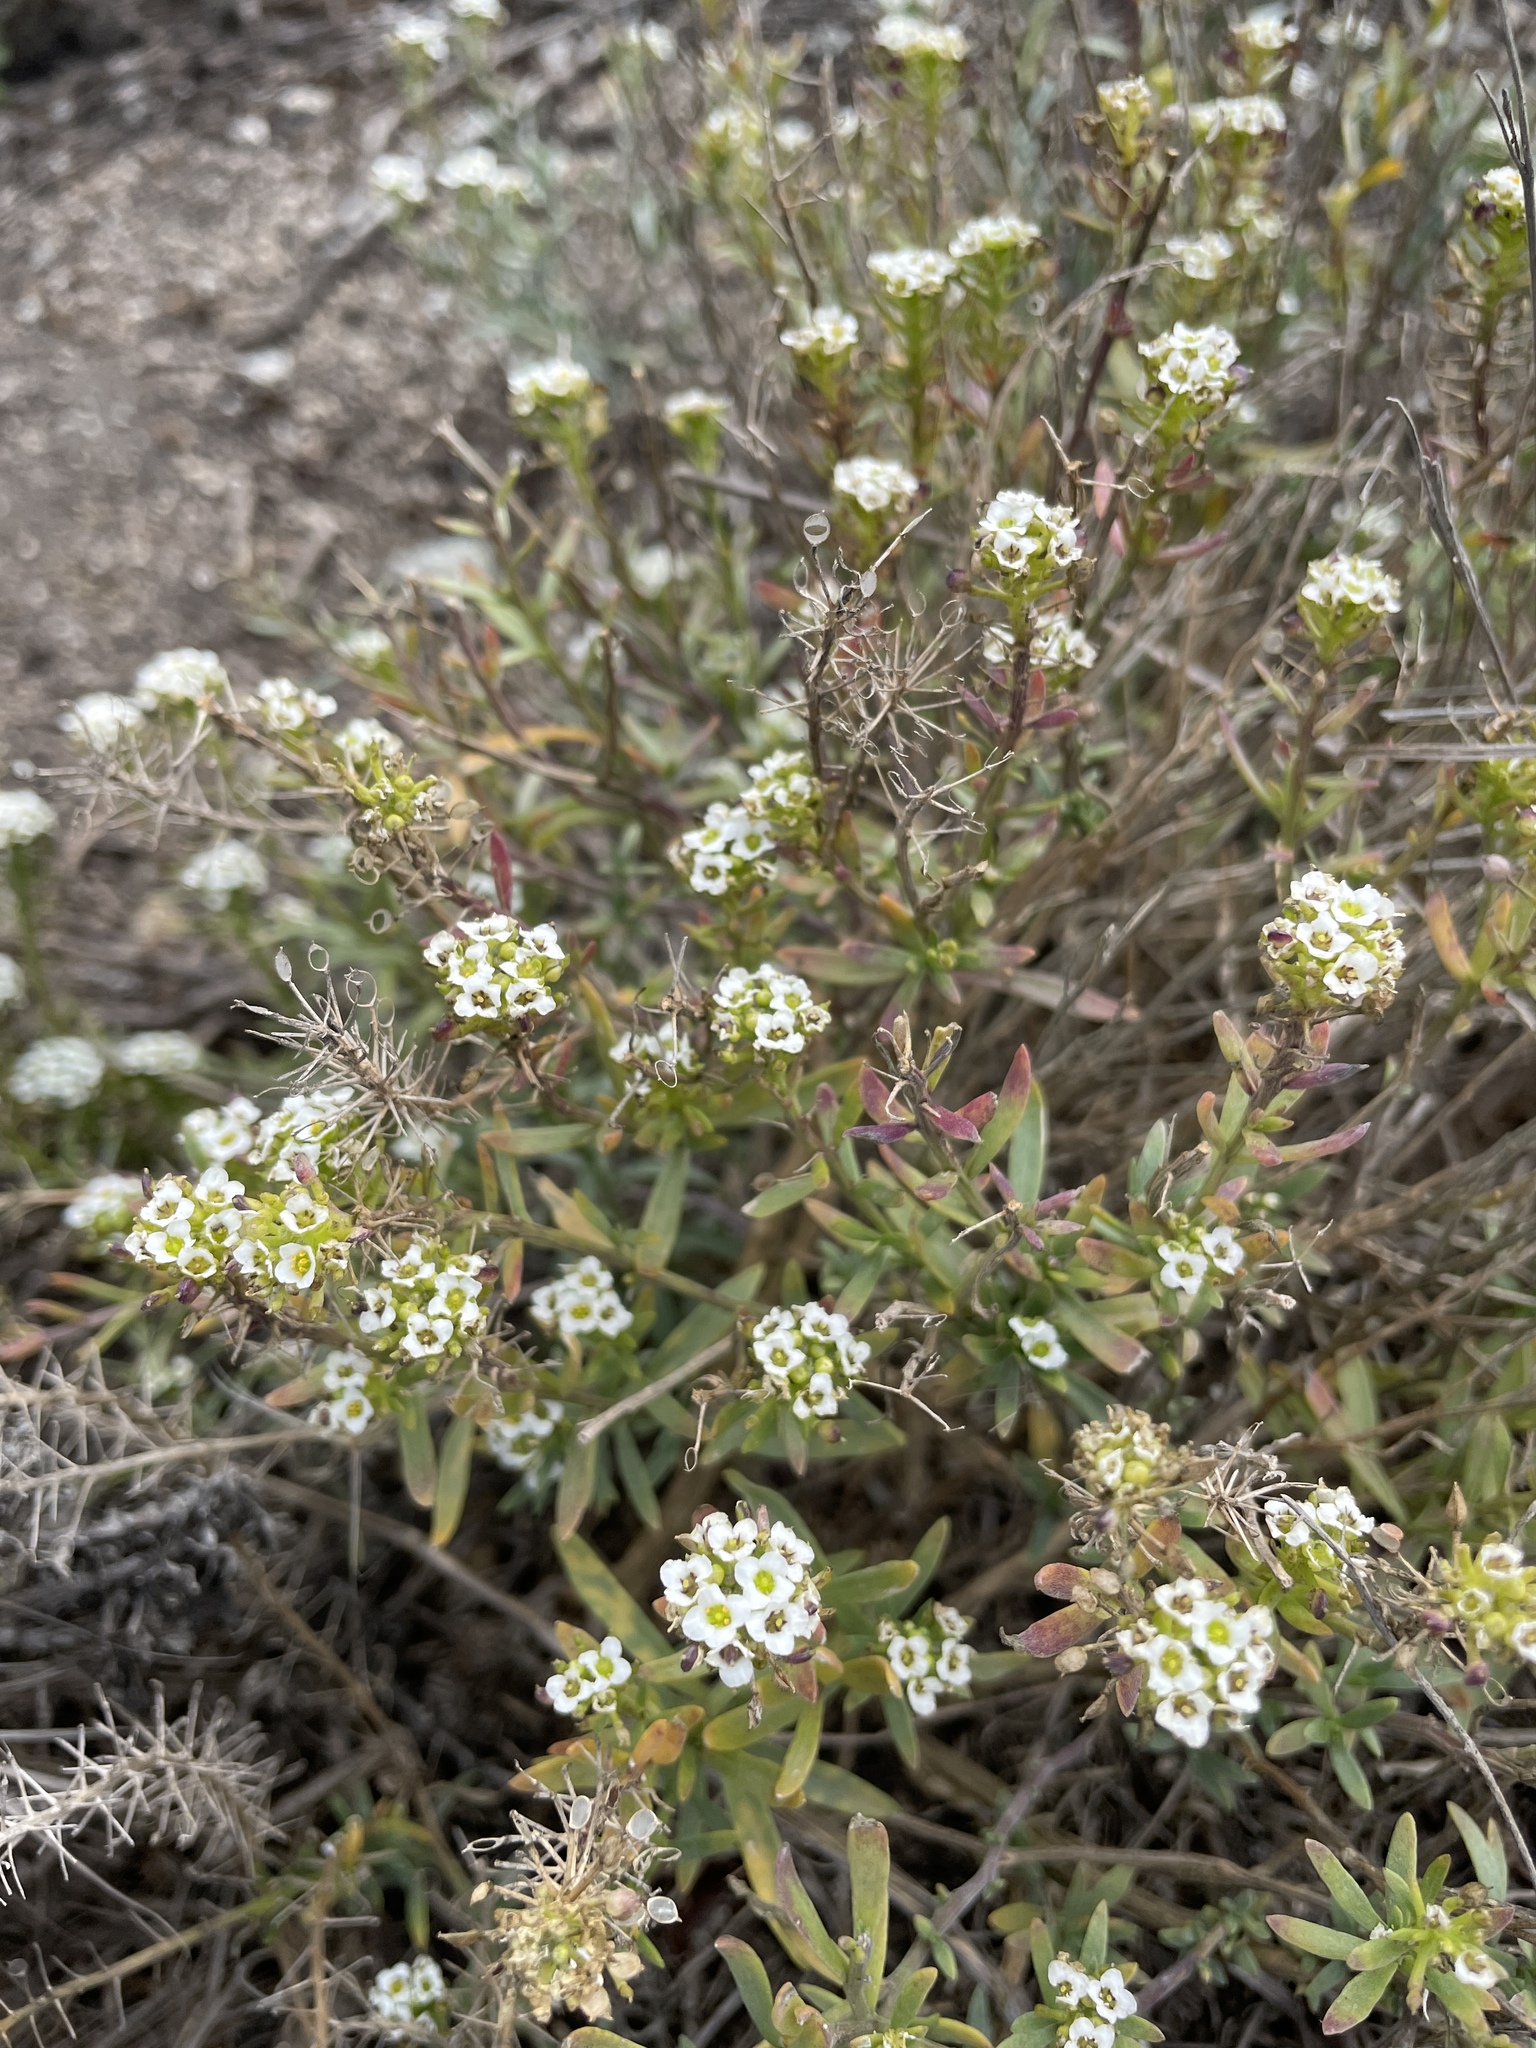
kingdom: Plantae
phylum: Tracheophyta
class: Magnoliopsida
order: Brassicales
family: Brassicaceae
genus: Lobularia
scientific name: Lobularia maritima
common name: Sweet alison
